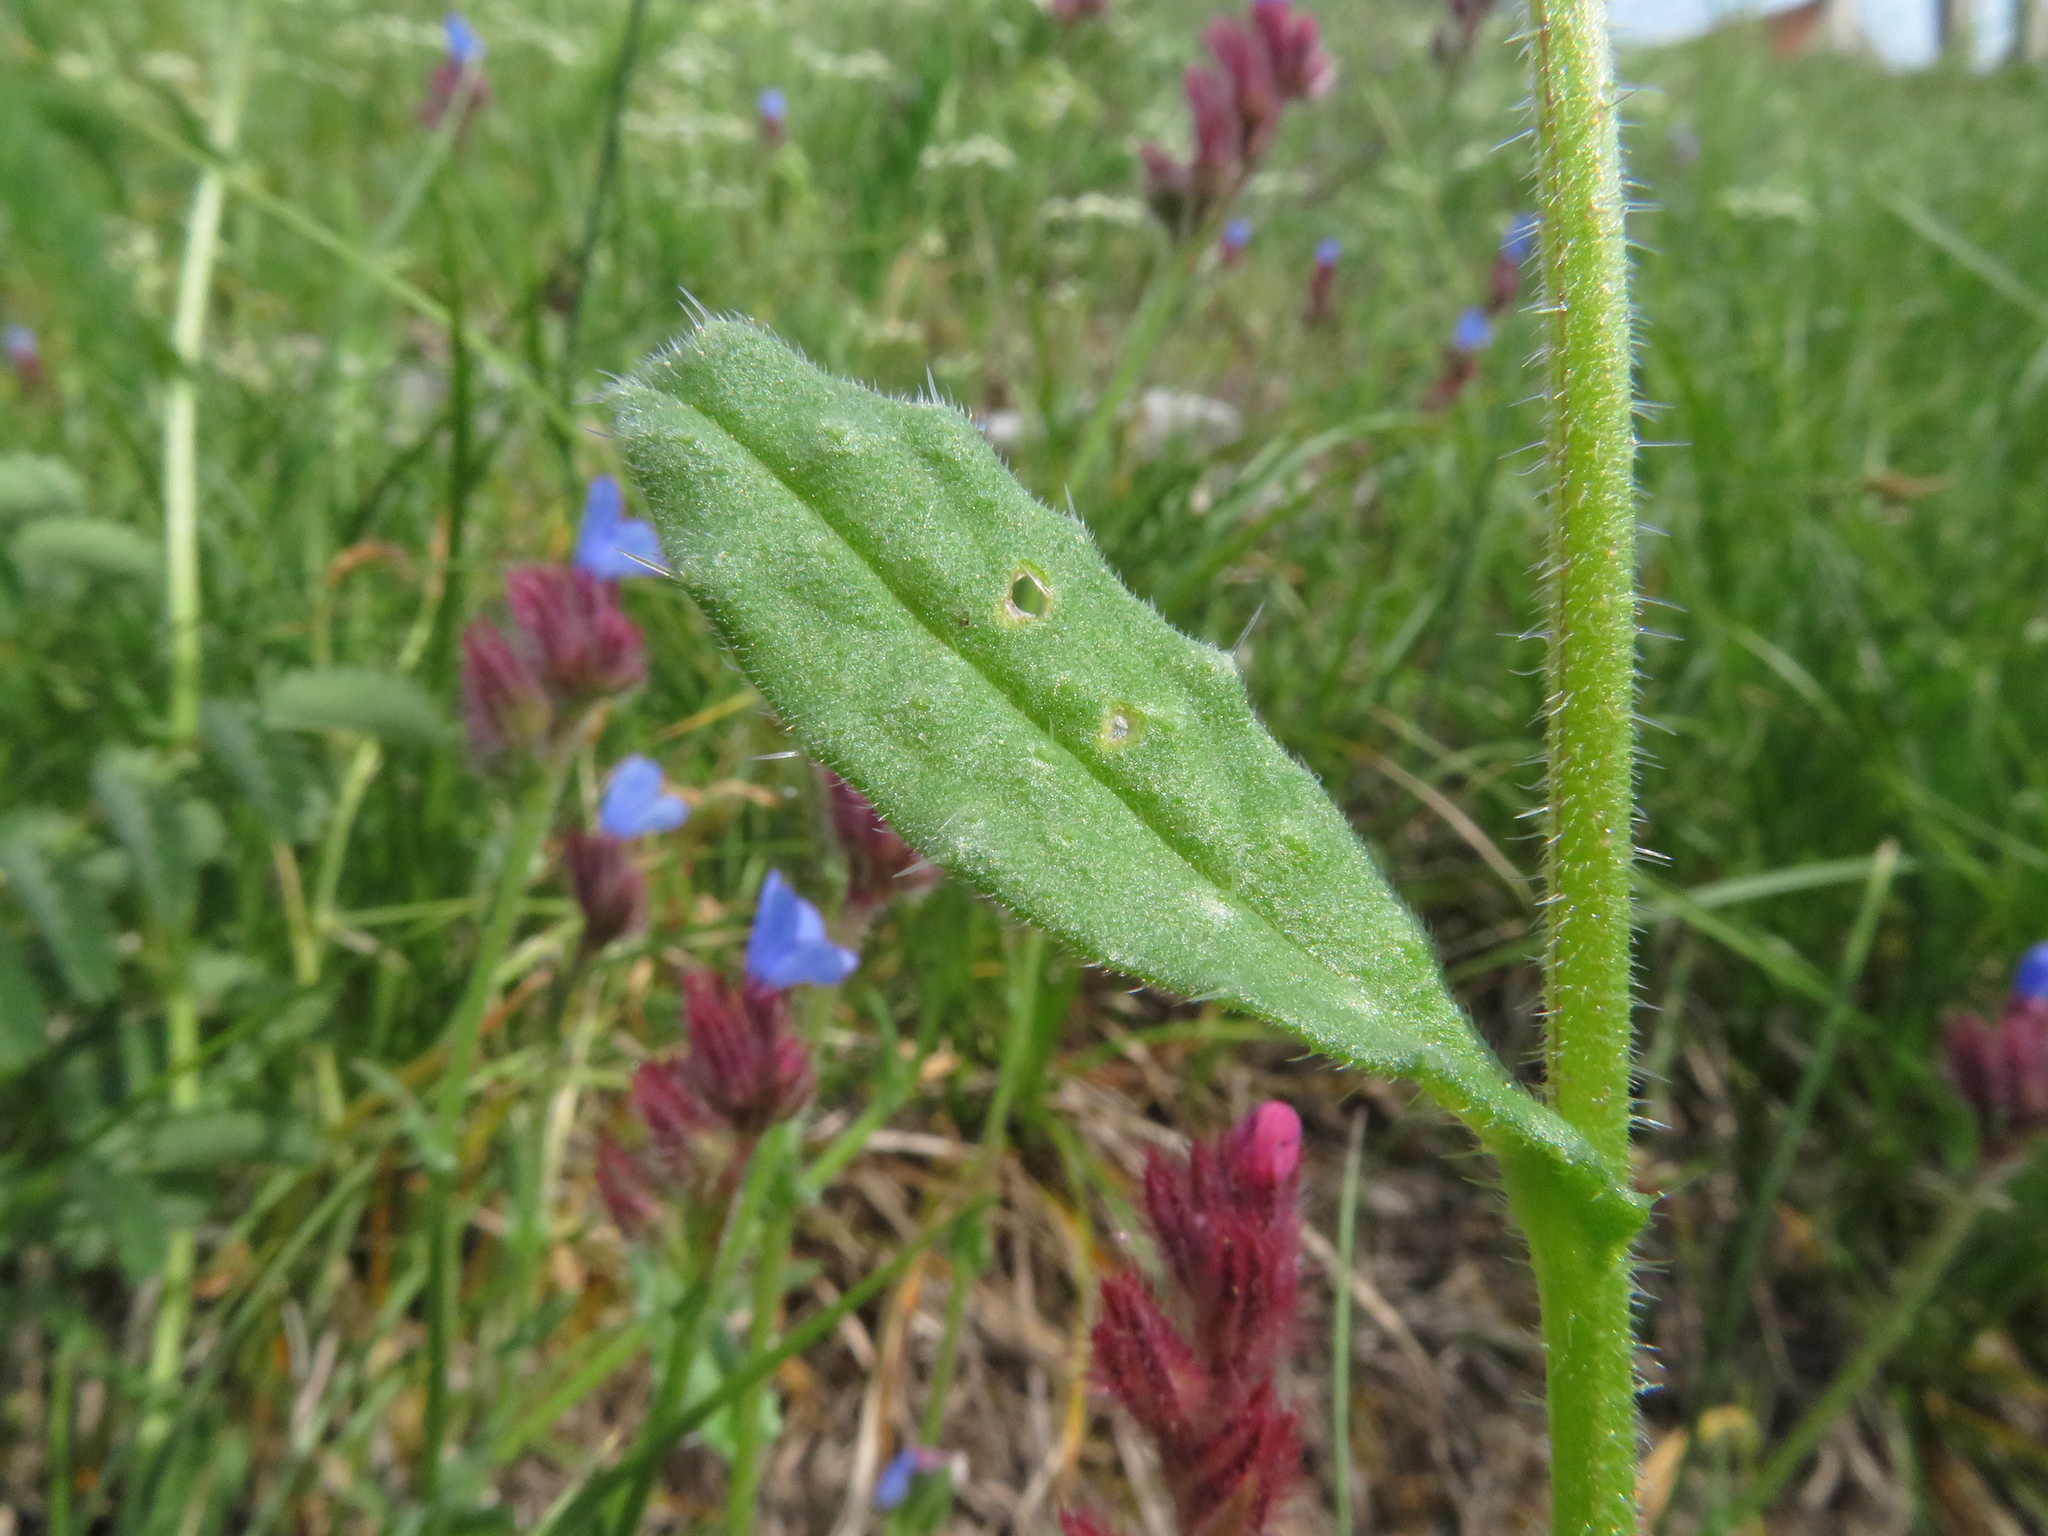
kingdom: Plantae
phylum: Tracheophyta
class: Magnoliopsida
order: Boraginales
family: Boraginaceae
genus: Anchusella
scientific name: Anchusella cretica
